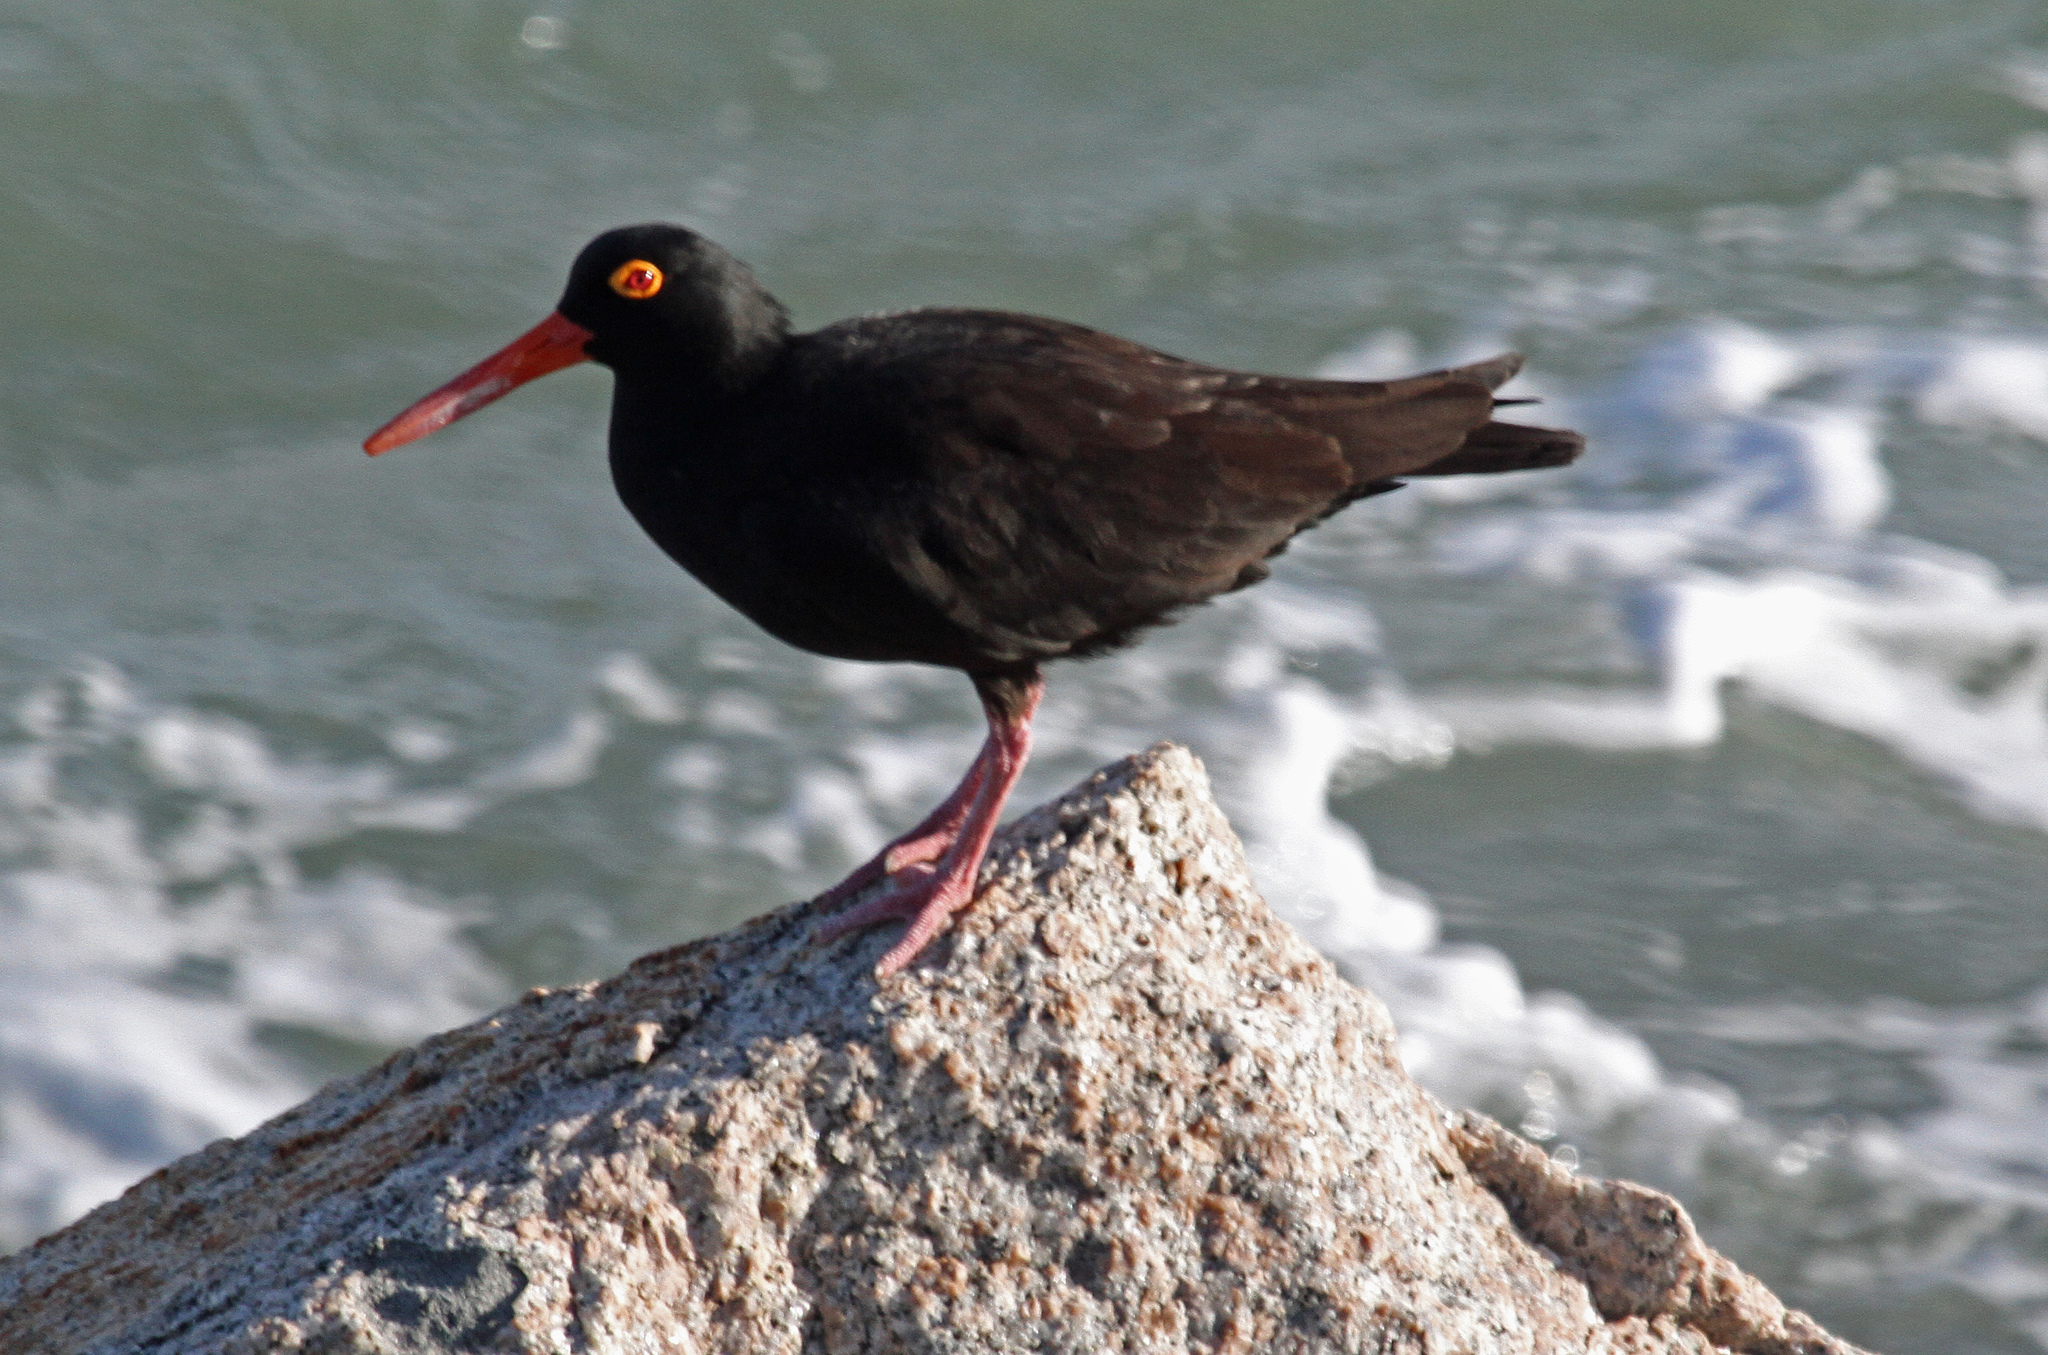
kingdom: Animalia
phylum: Chordata
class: Aves
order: Charadriiformes
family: Haematopodidae
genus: Haematopus
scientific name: Haematopus fuliginosus
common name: Sooty oystercatcher
